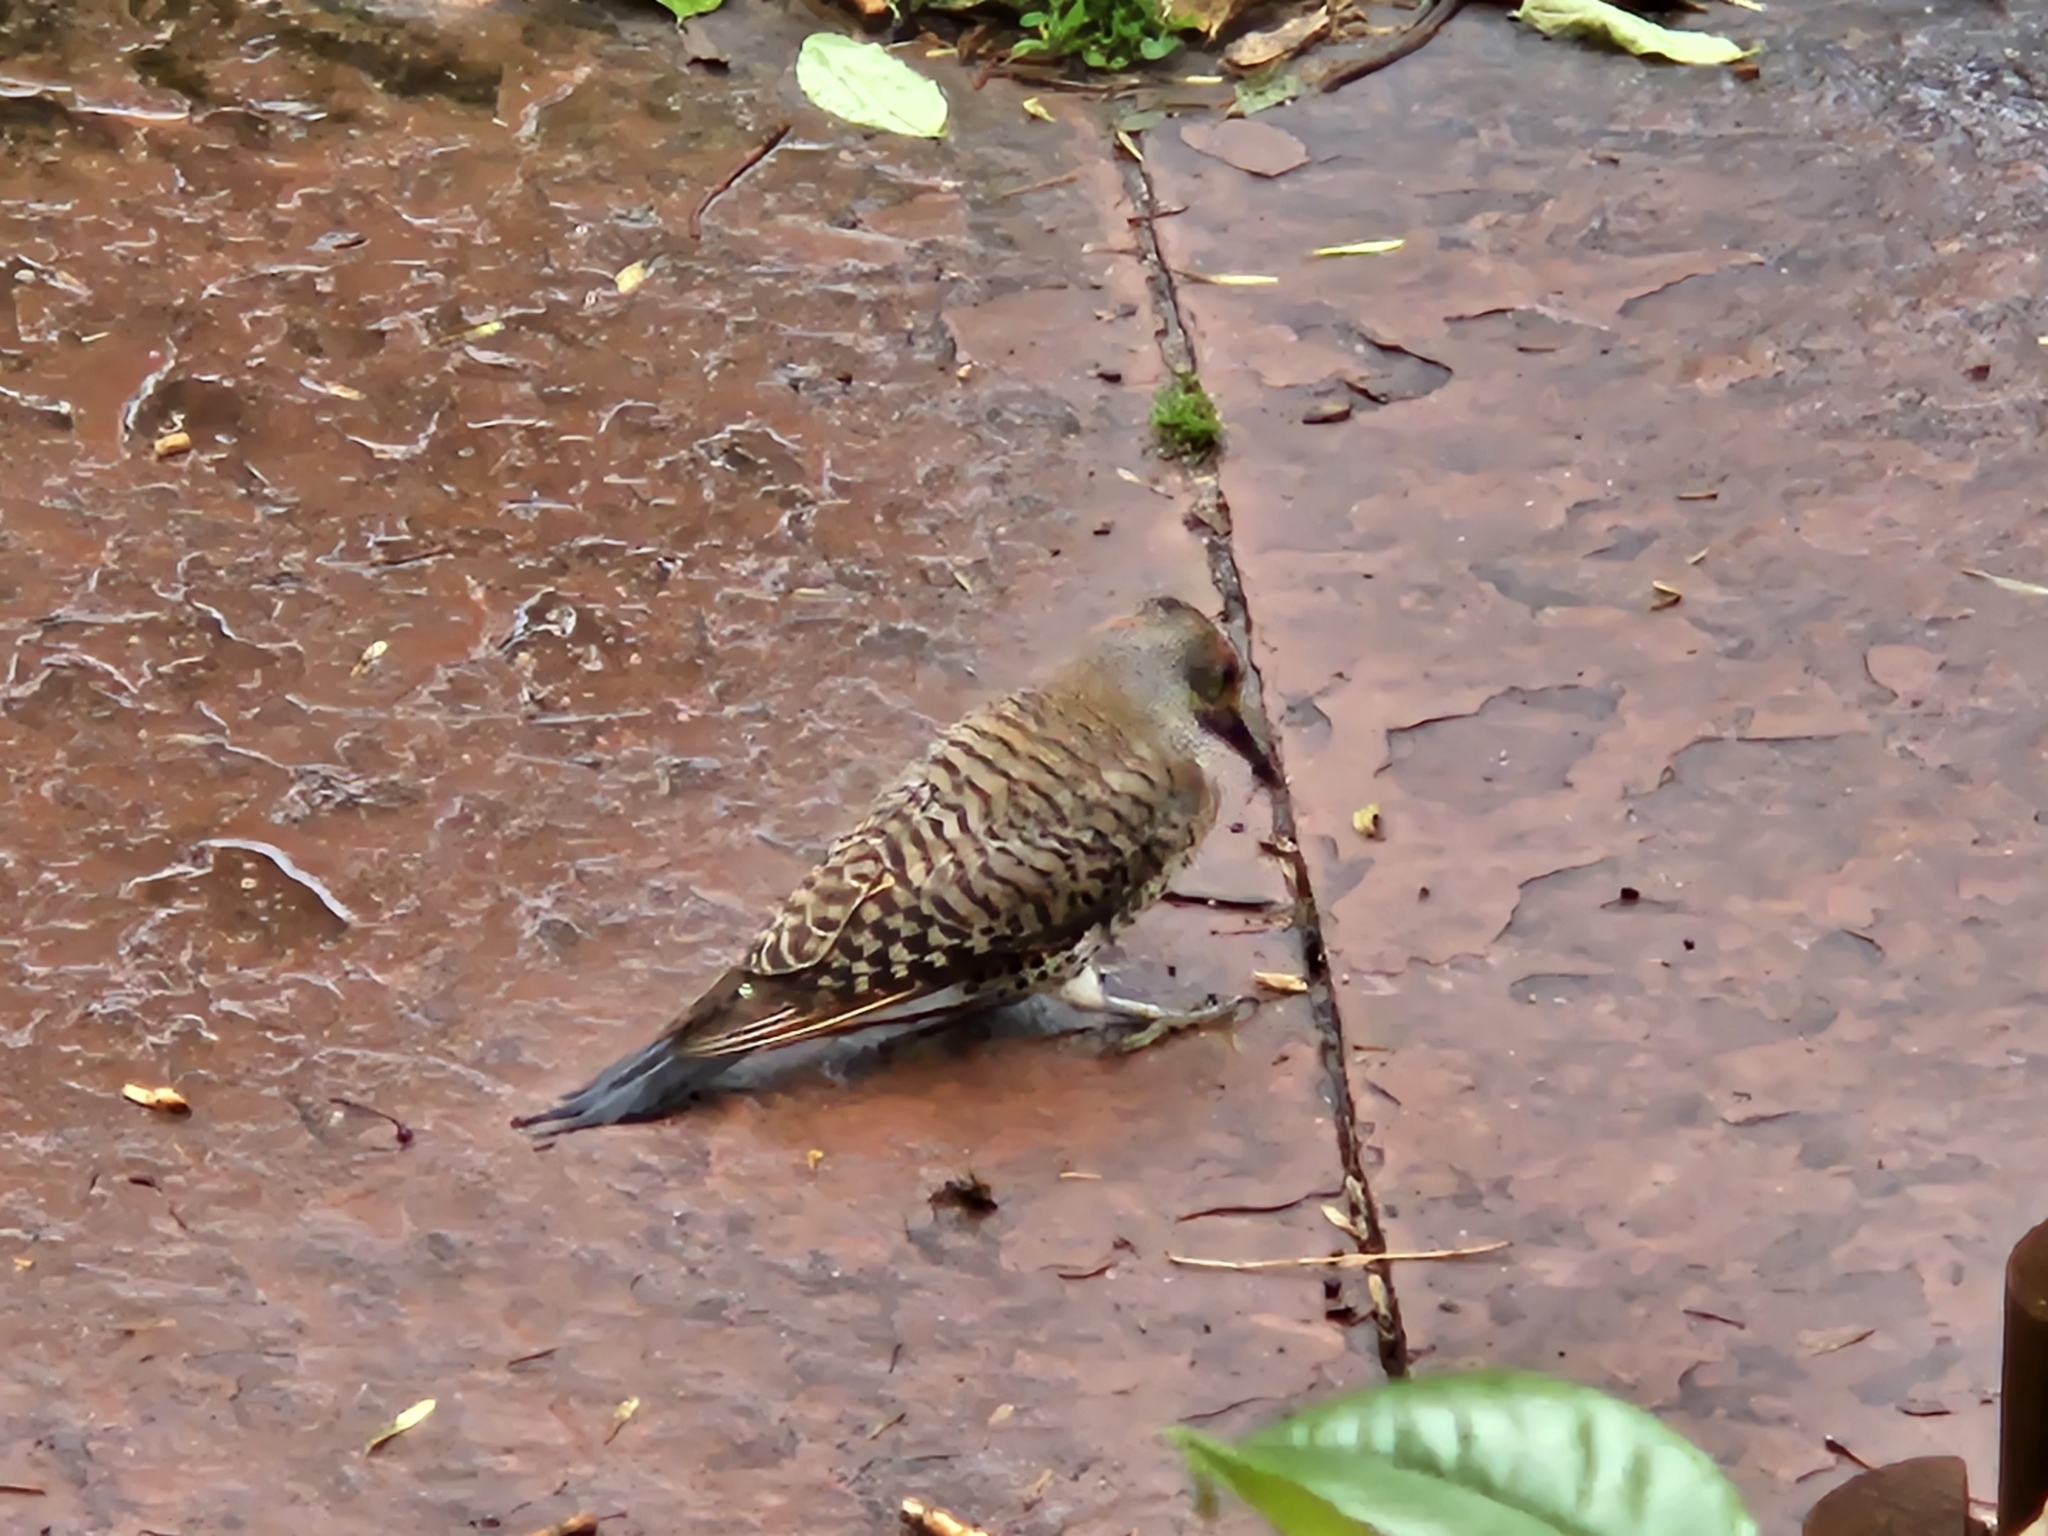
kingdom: Animalia
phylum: Chordata
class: Aves
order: Piciformes
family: Picidae
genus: Colaptes
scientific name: Colaptes auratus
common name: Northern flicker
